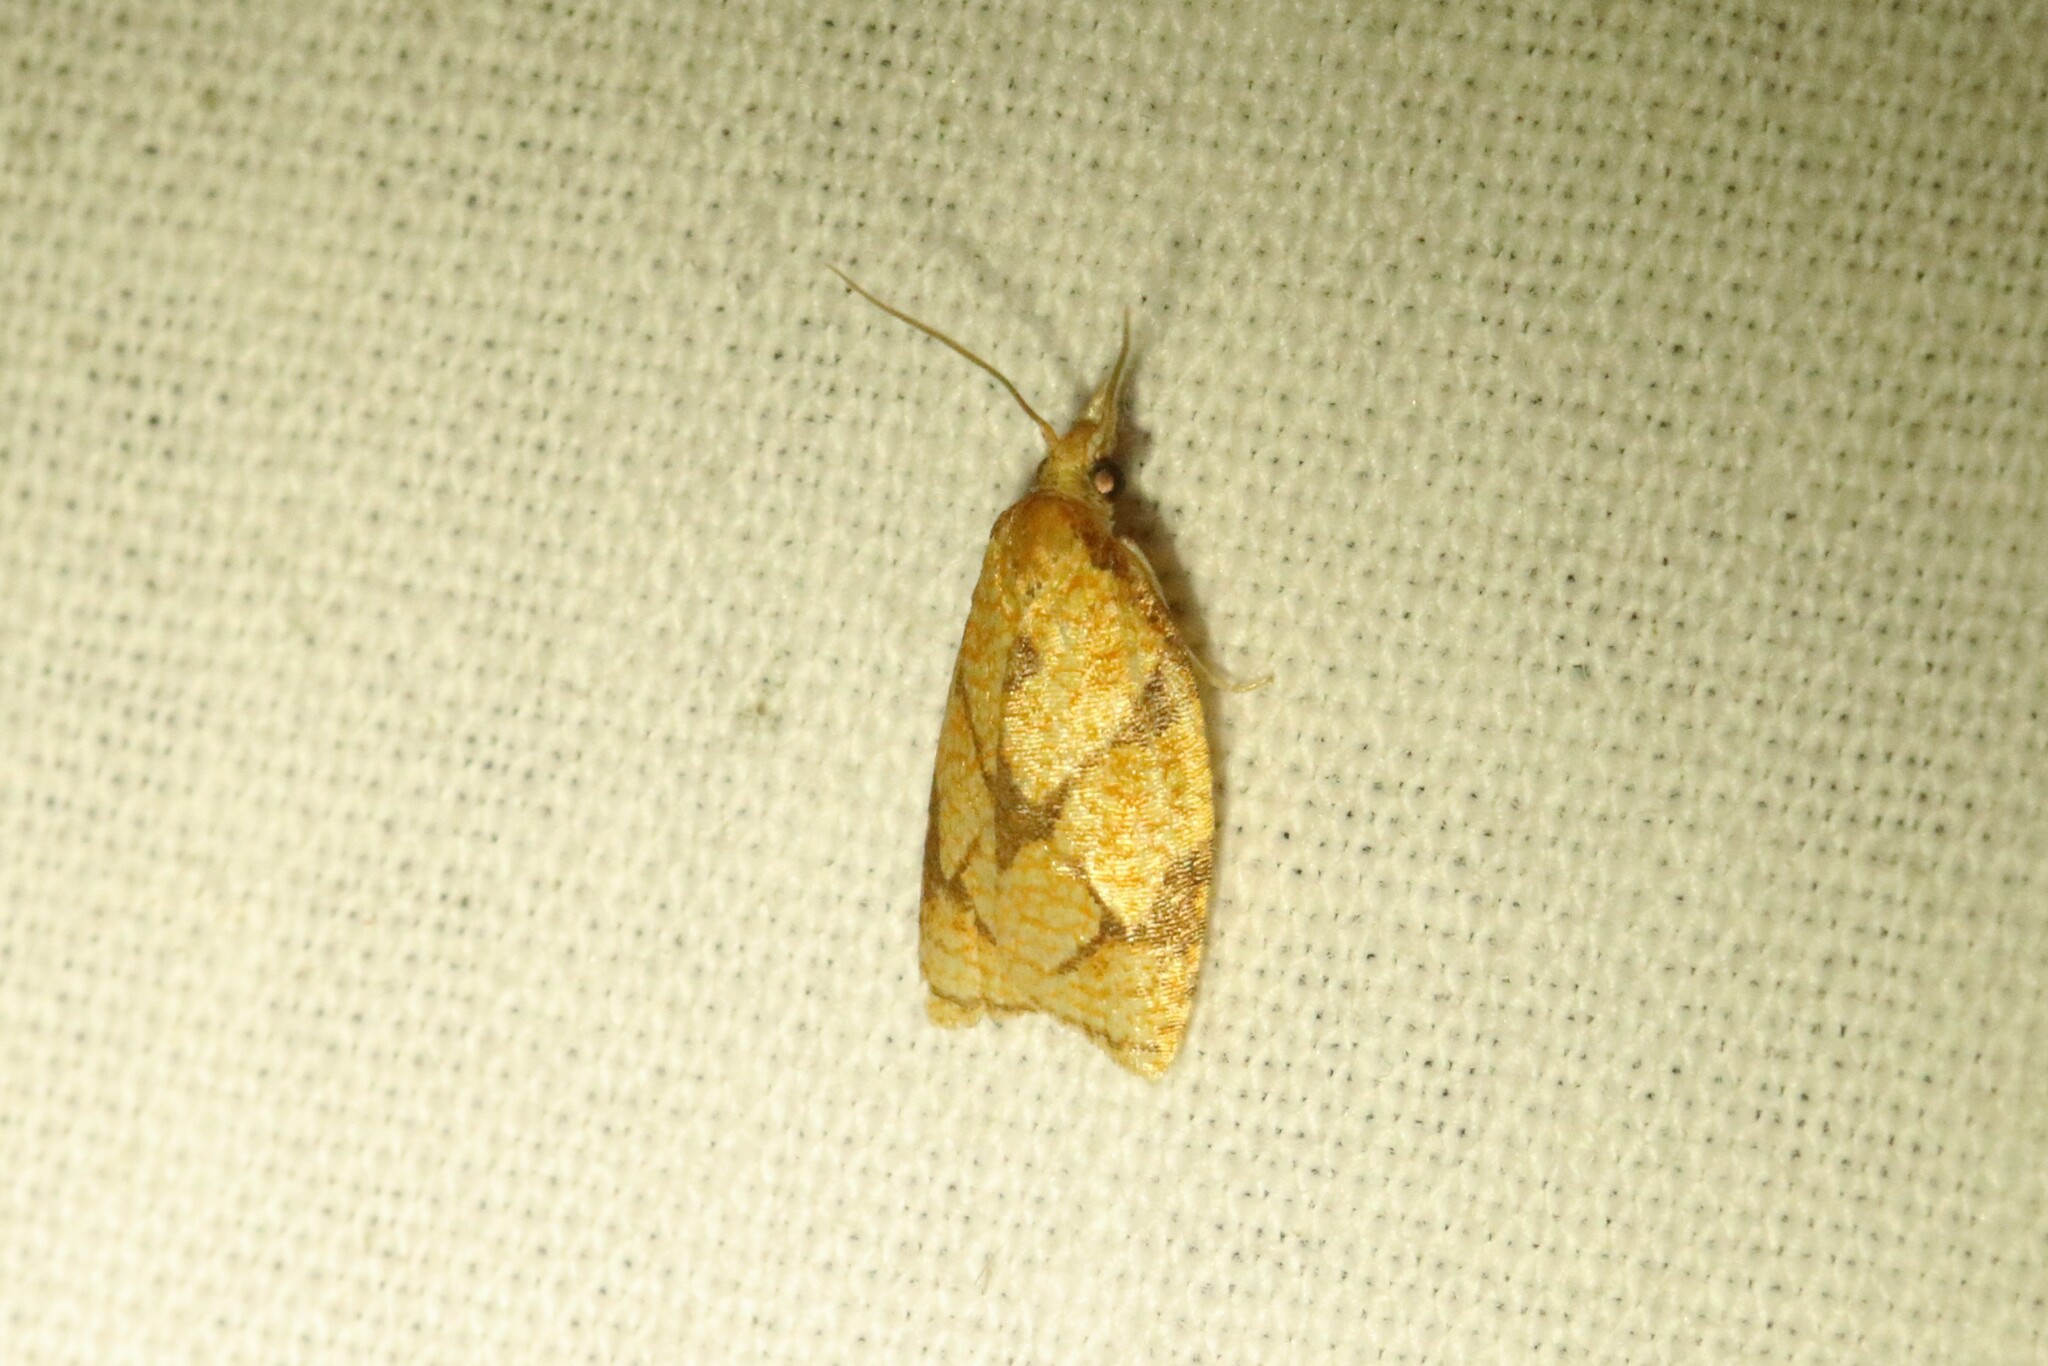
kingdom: Animalia
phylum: Arthropoda
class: Insecta
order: Lepidoptera
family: Tortricidae
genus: Cenopis
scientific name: Cenopis reticulatana
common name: Reticulated fruitworm moth
